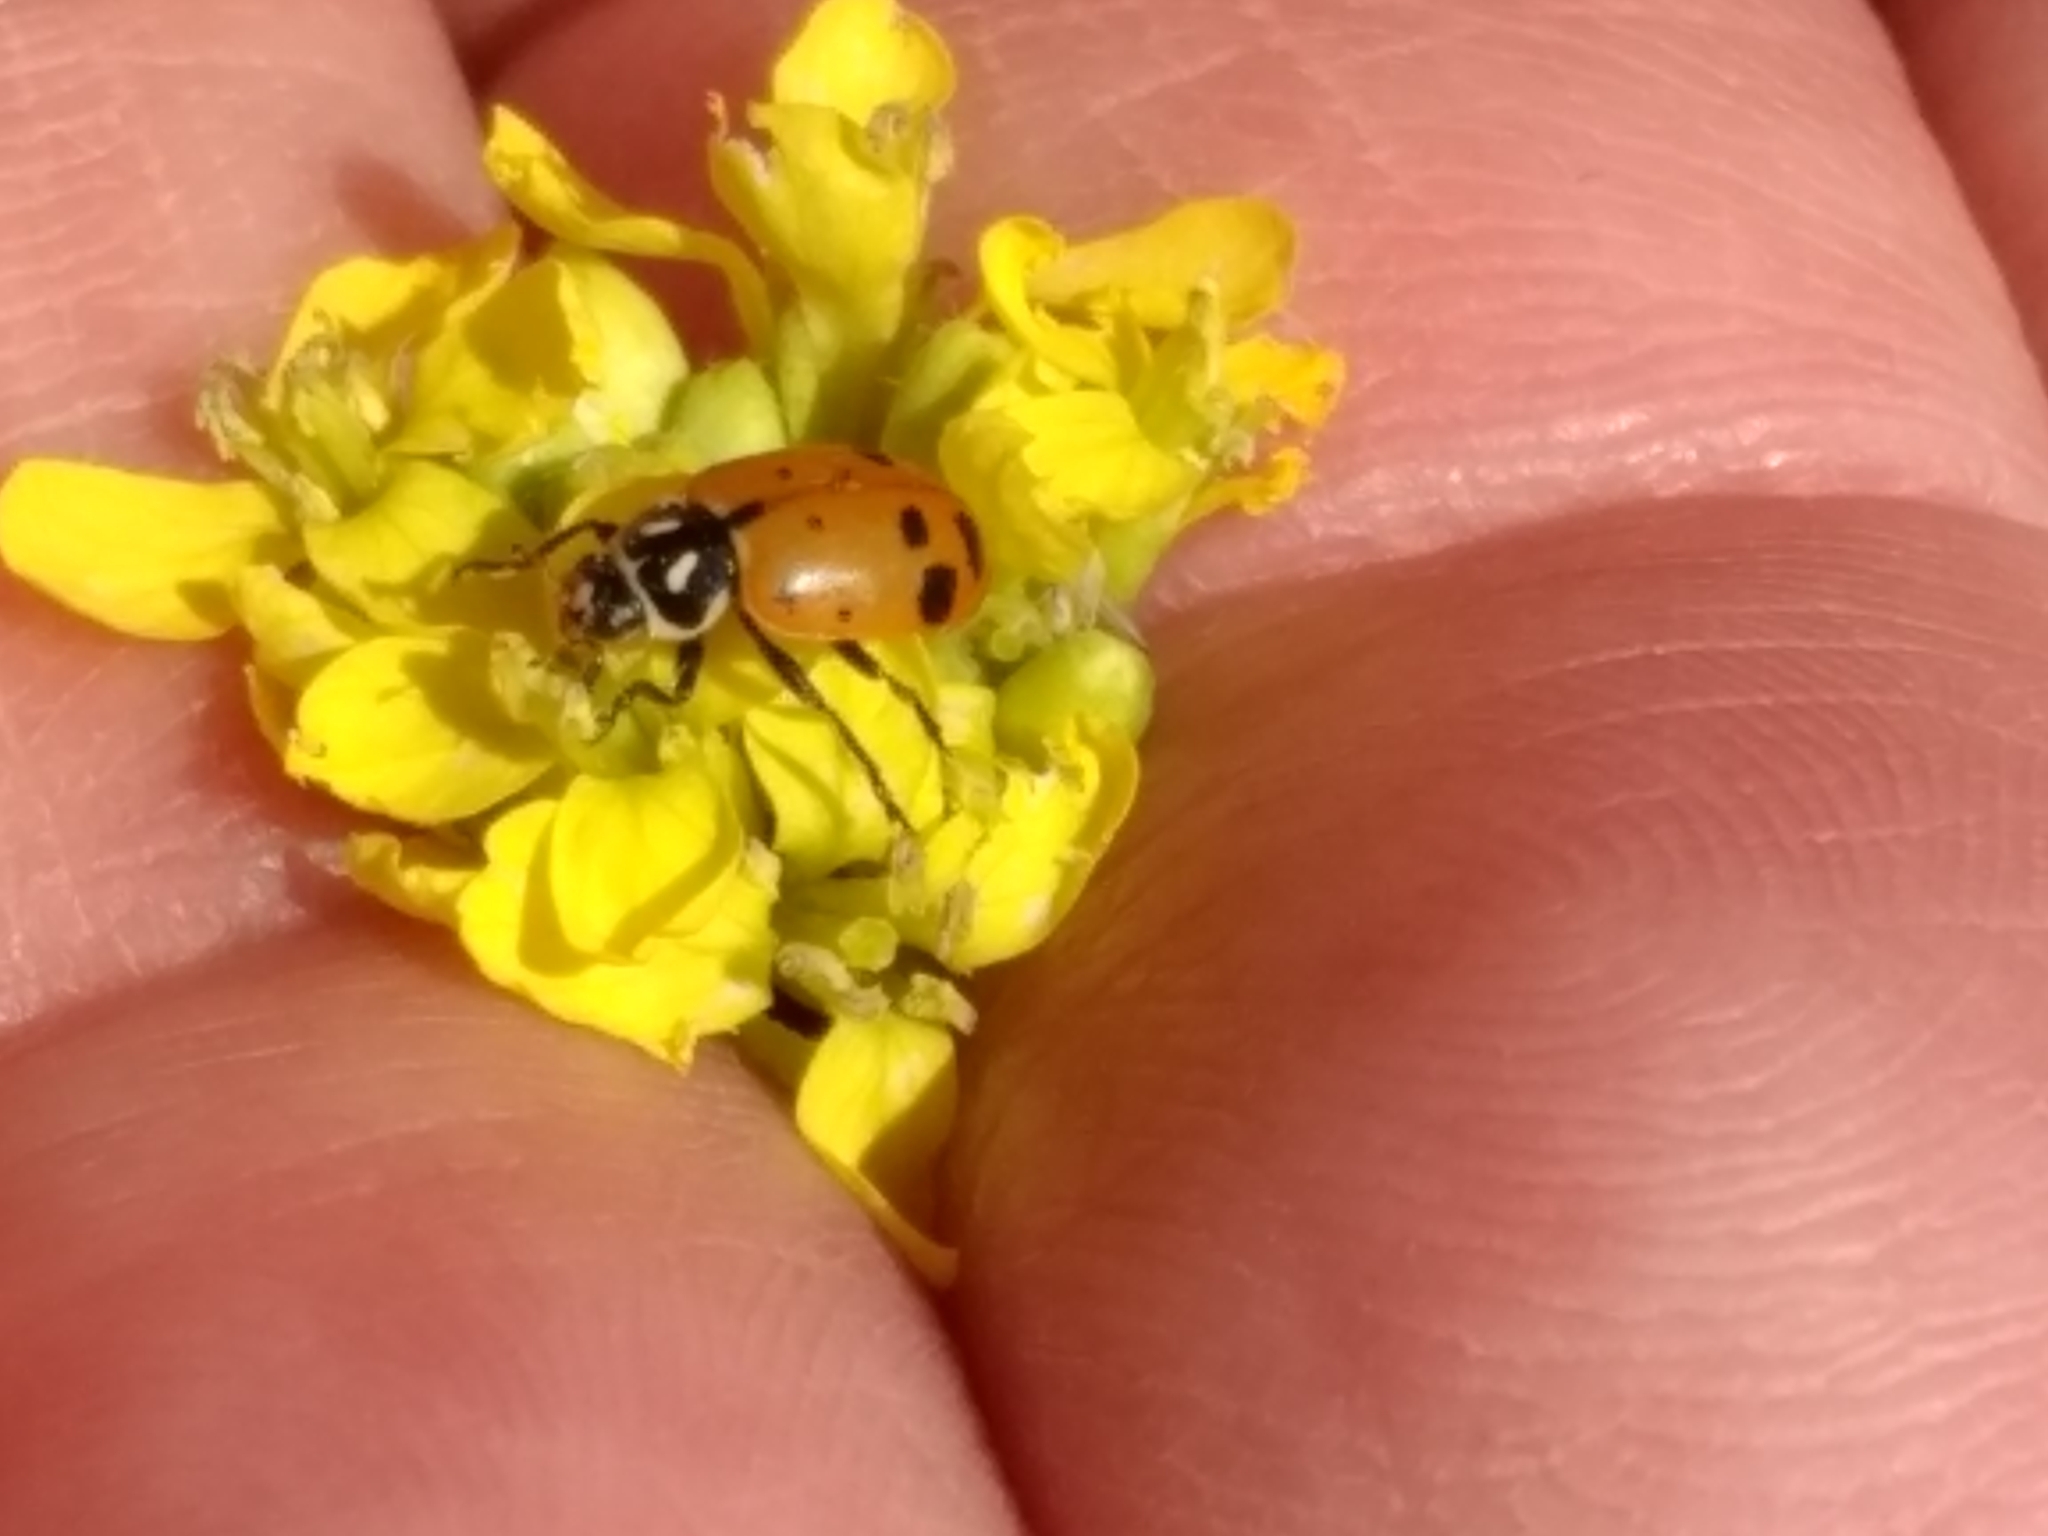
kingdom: Animalia
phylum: Arthropoda
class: Insecta
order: Coleoptera
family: Coccinellidae
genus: Hippodamia
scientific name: Hippodamia convergens
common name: Convergent lady beetle
